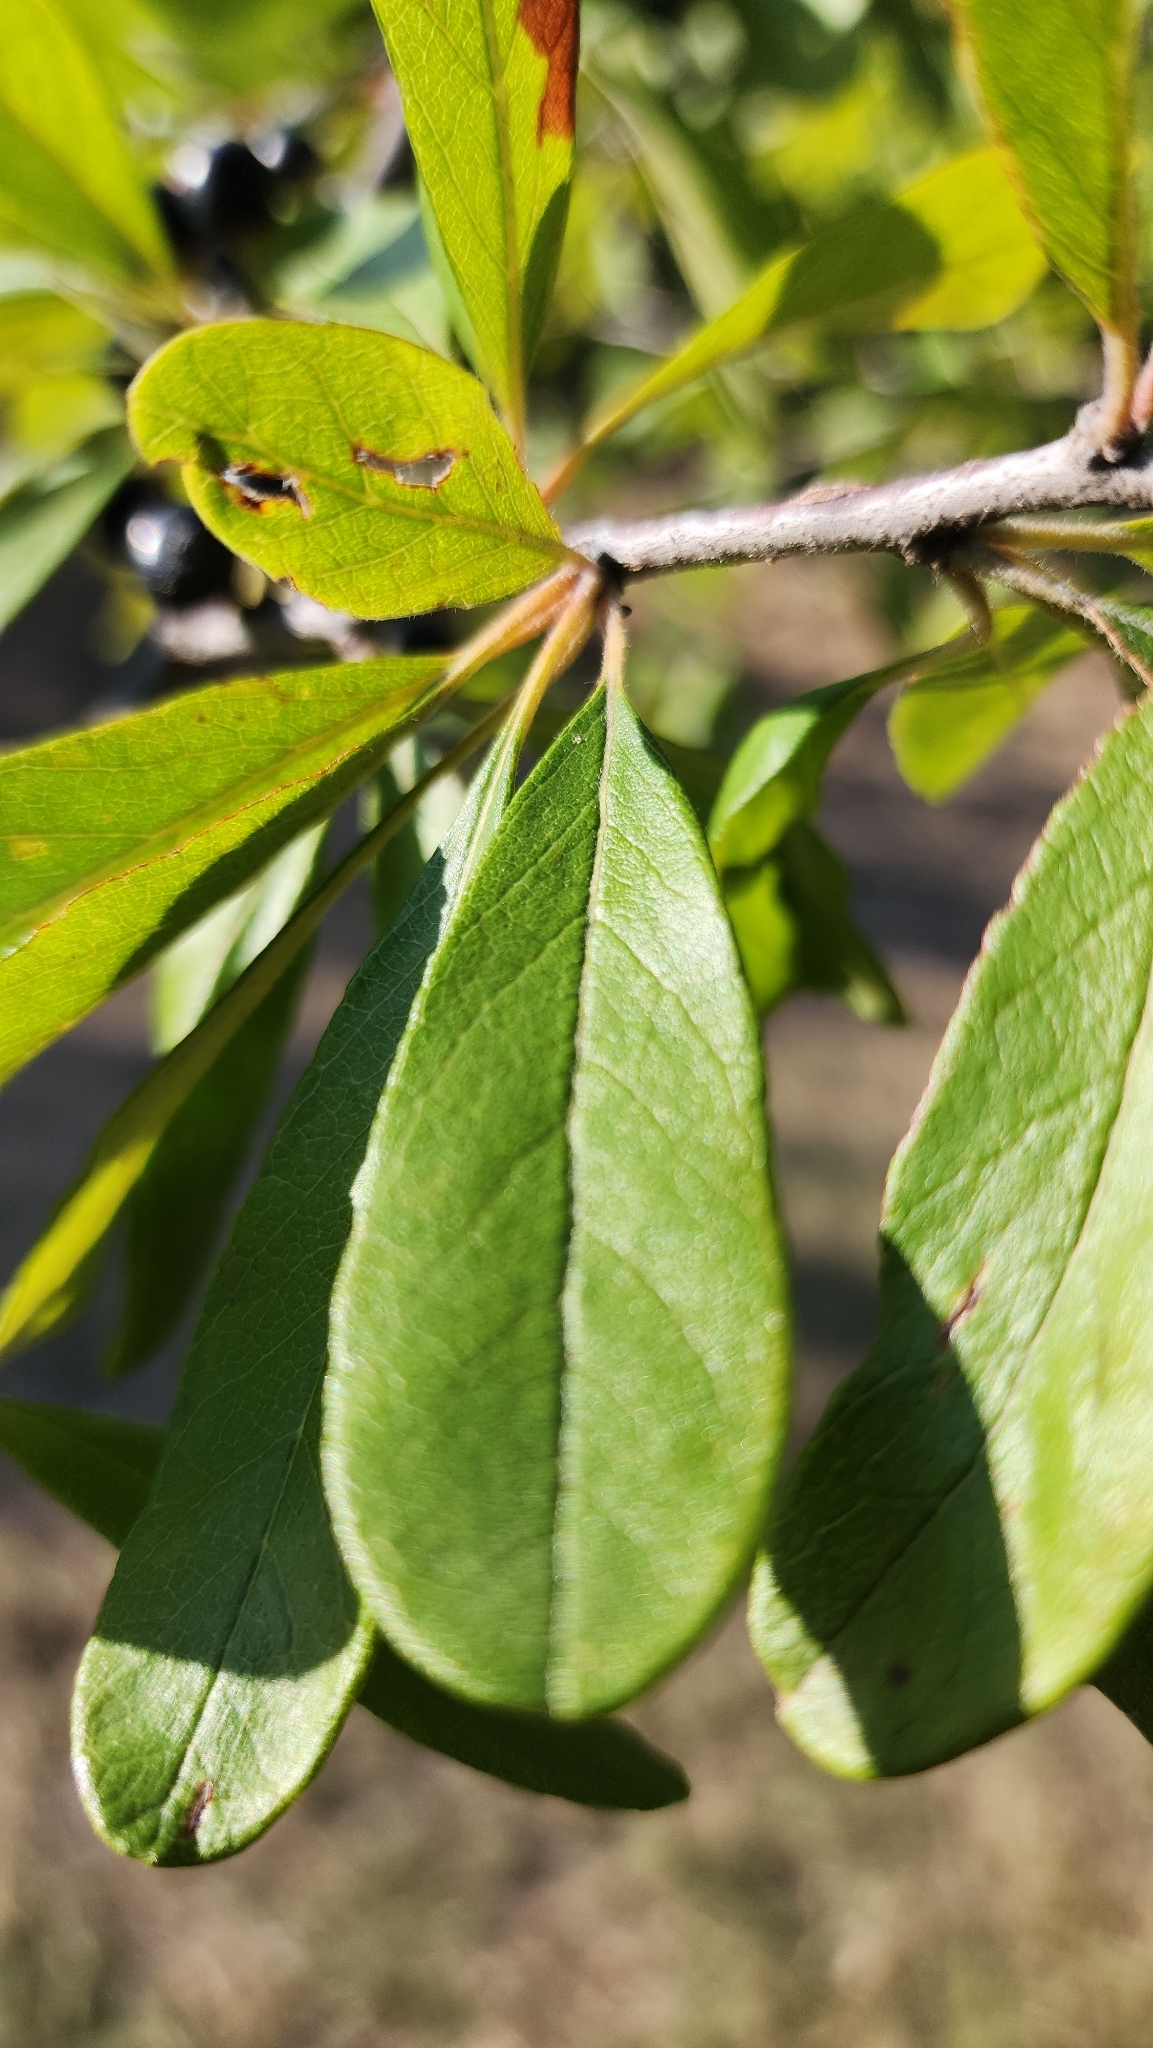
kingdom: Plantae
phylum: Tracheophyta
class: Magnoliopsida
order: Ericales
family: Sapotaceae
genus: Sideroxylon
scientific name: Sideroxylon lanuginosum
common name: Chittamwood
